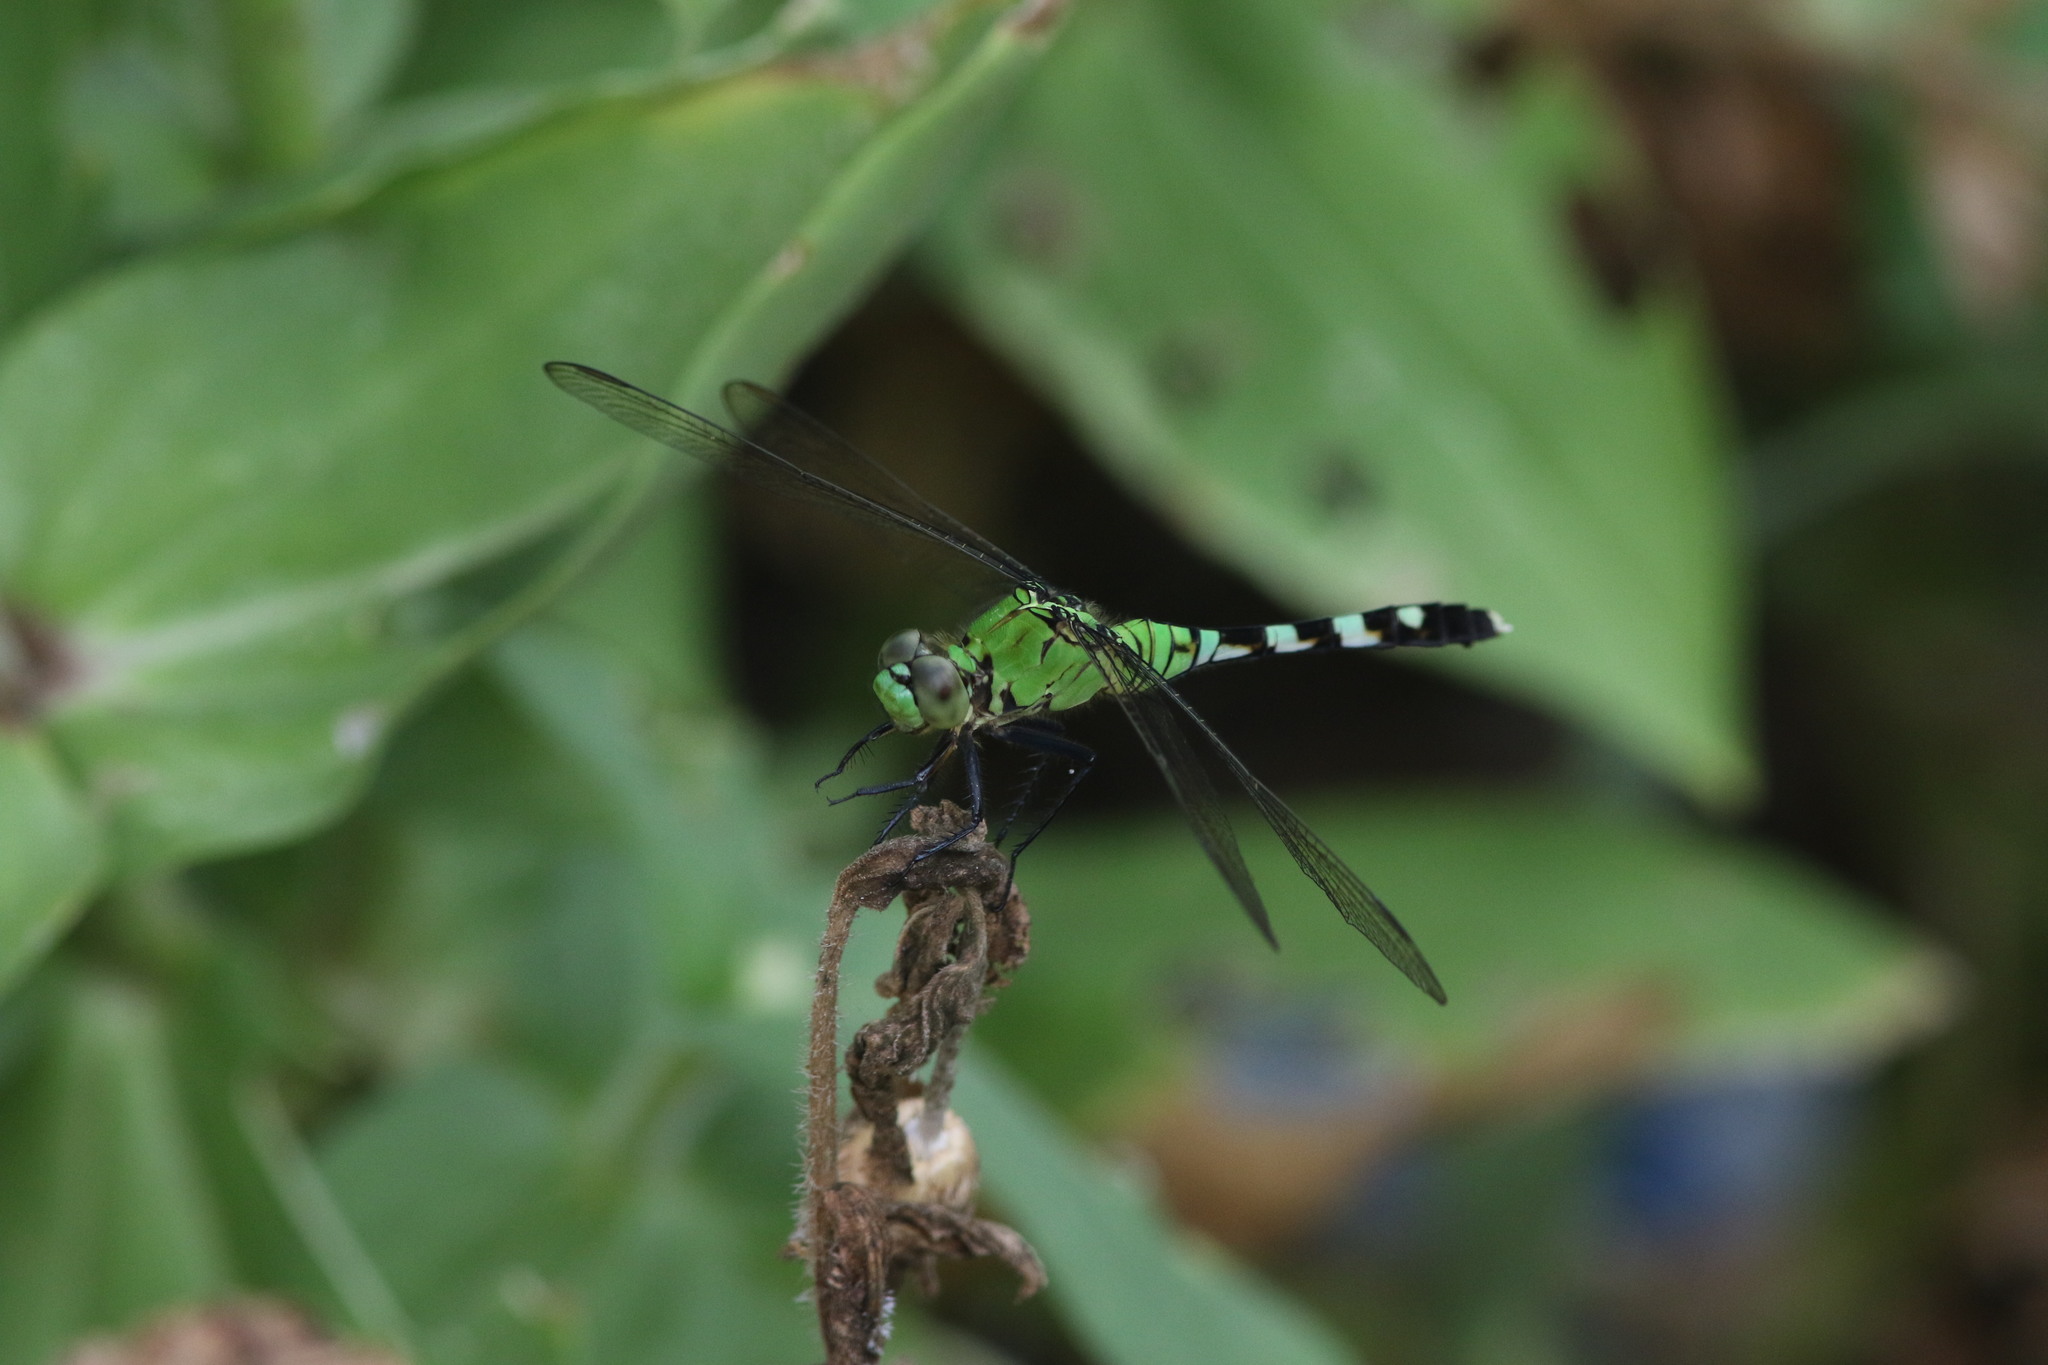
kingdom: Animalia
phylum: Arthropoda
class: Insecta
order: Odonata
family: Libellulidae
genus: Erythemis
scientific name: Erythemis simplicicollis
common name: Eastern pondhawk
